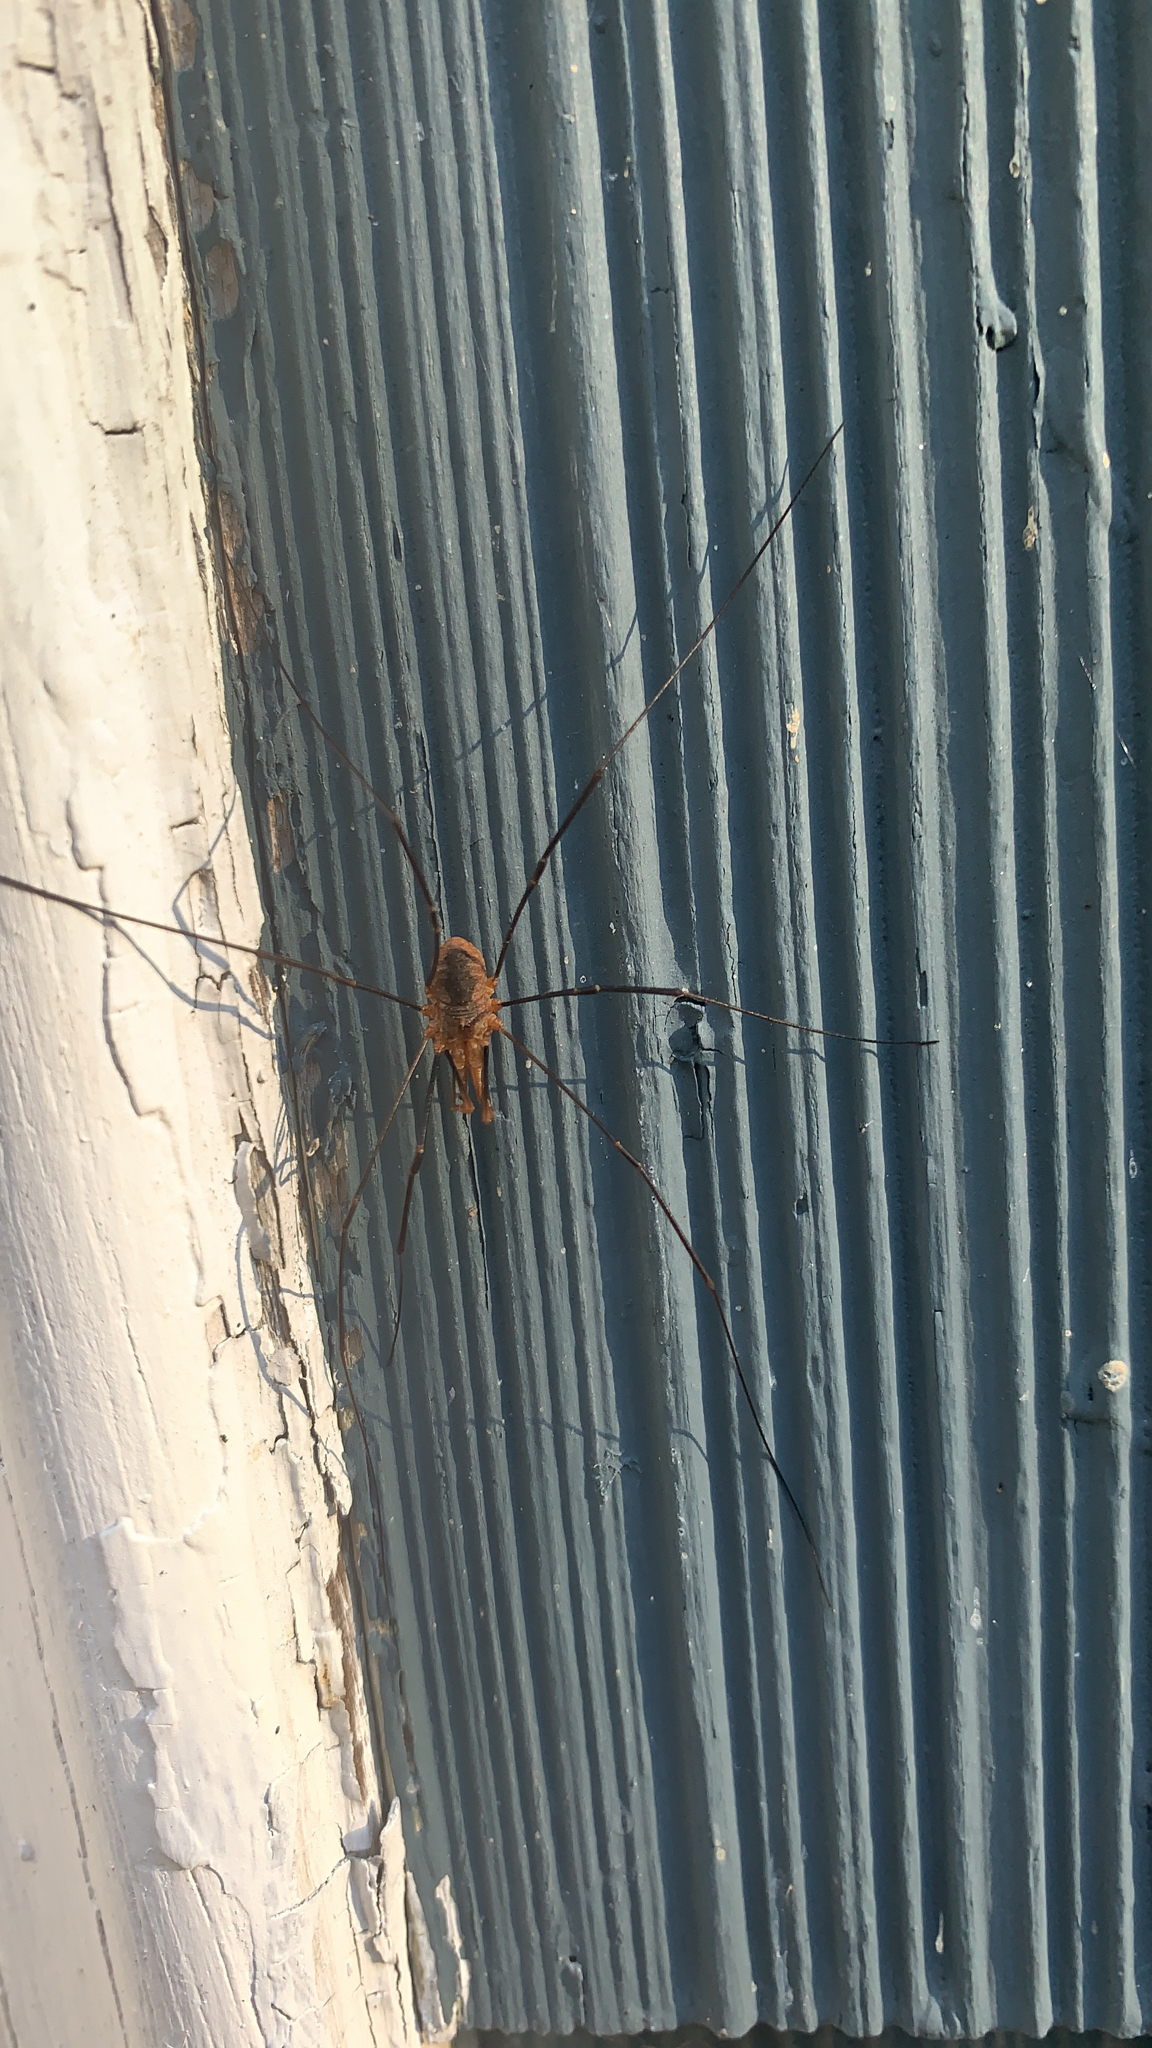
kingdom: Animalia
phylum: Arthropoda
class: Arachnida
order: Opiliones
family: Phalangiidae
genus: Phalangium
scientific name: Phalangium opilio
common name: Daddy longleg
